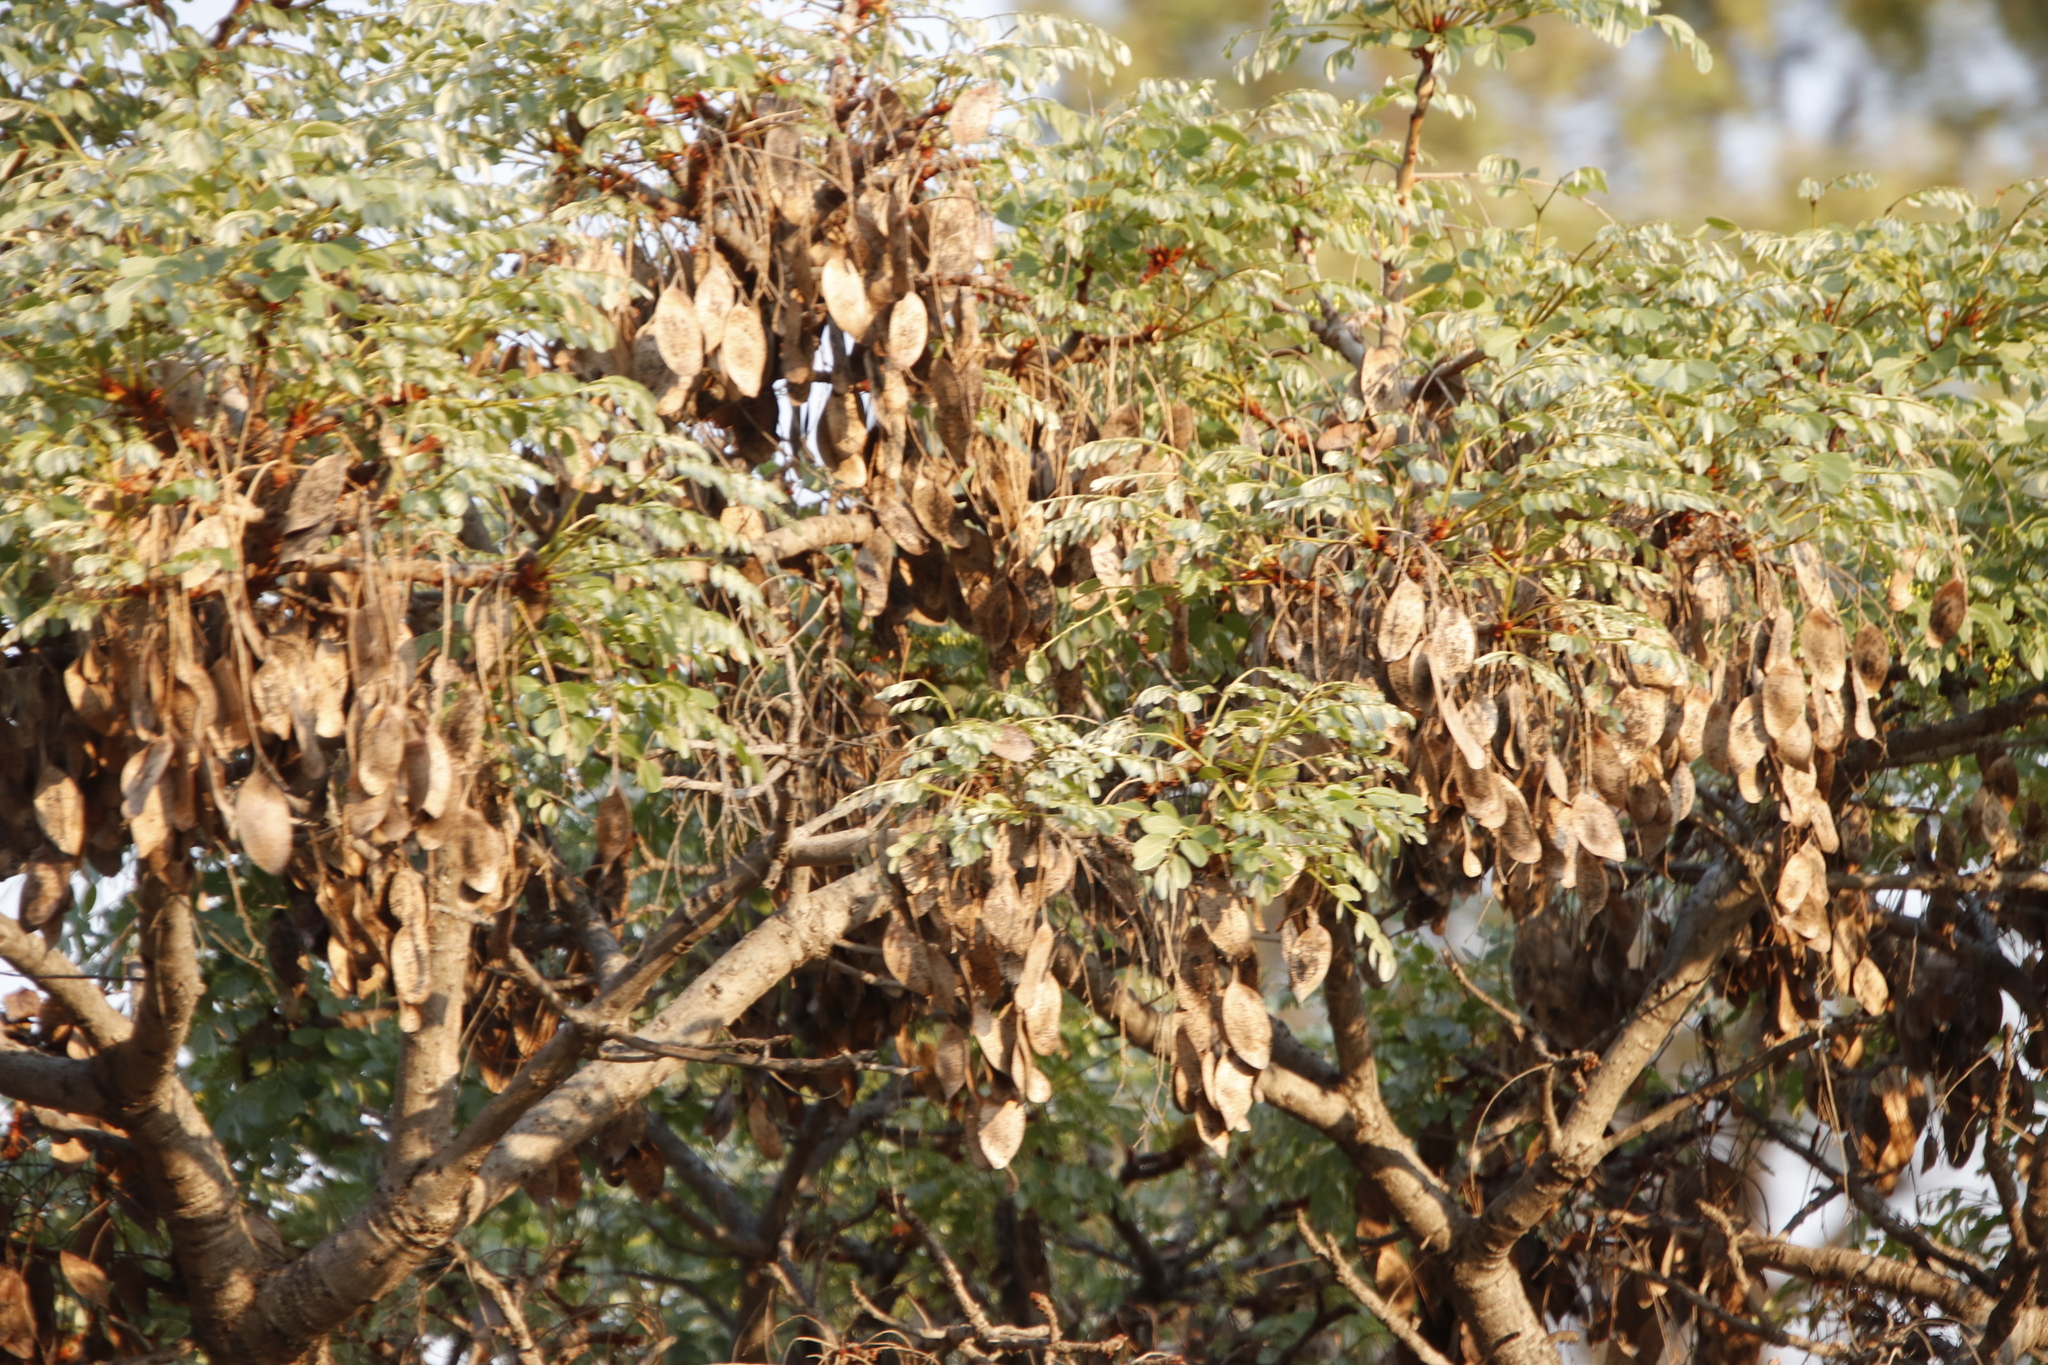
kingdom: Plantae
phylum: Tracheophyta
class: Magnoliopsida
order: Fabales
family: Fabaceae
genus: Burkea
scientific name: Burkea africana
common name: Mkalati tree
